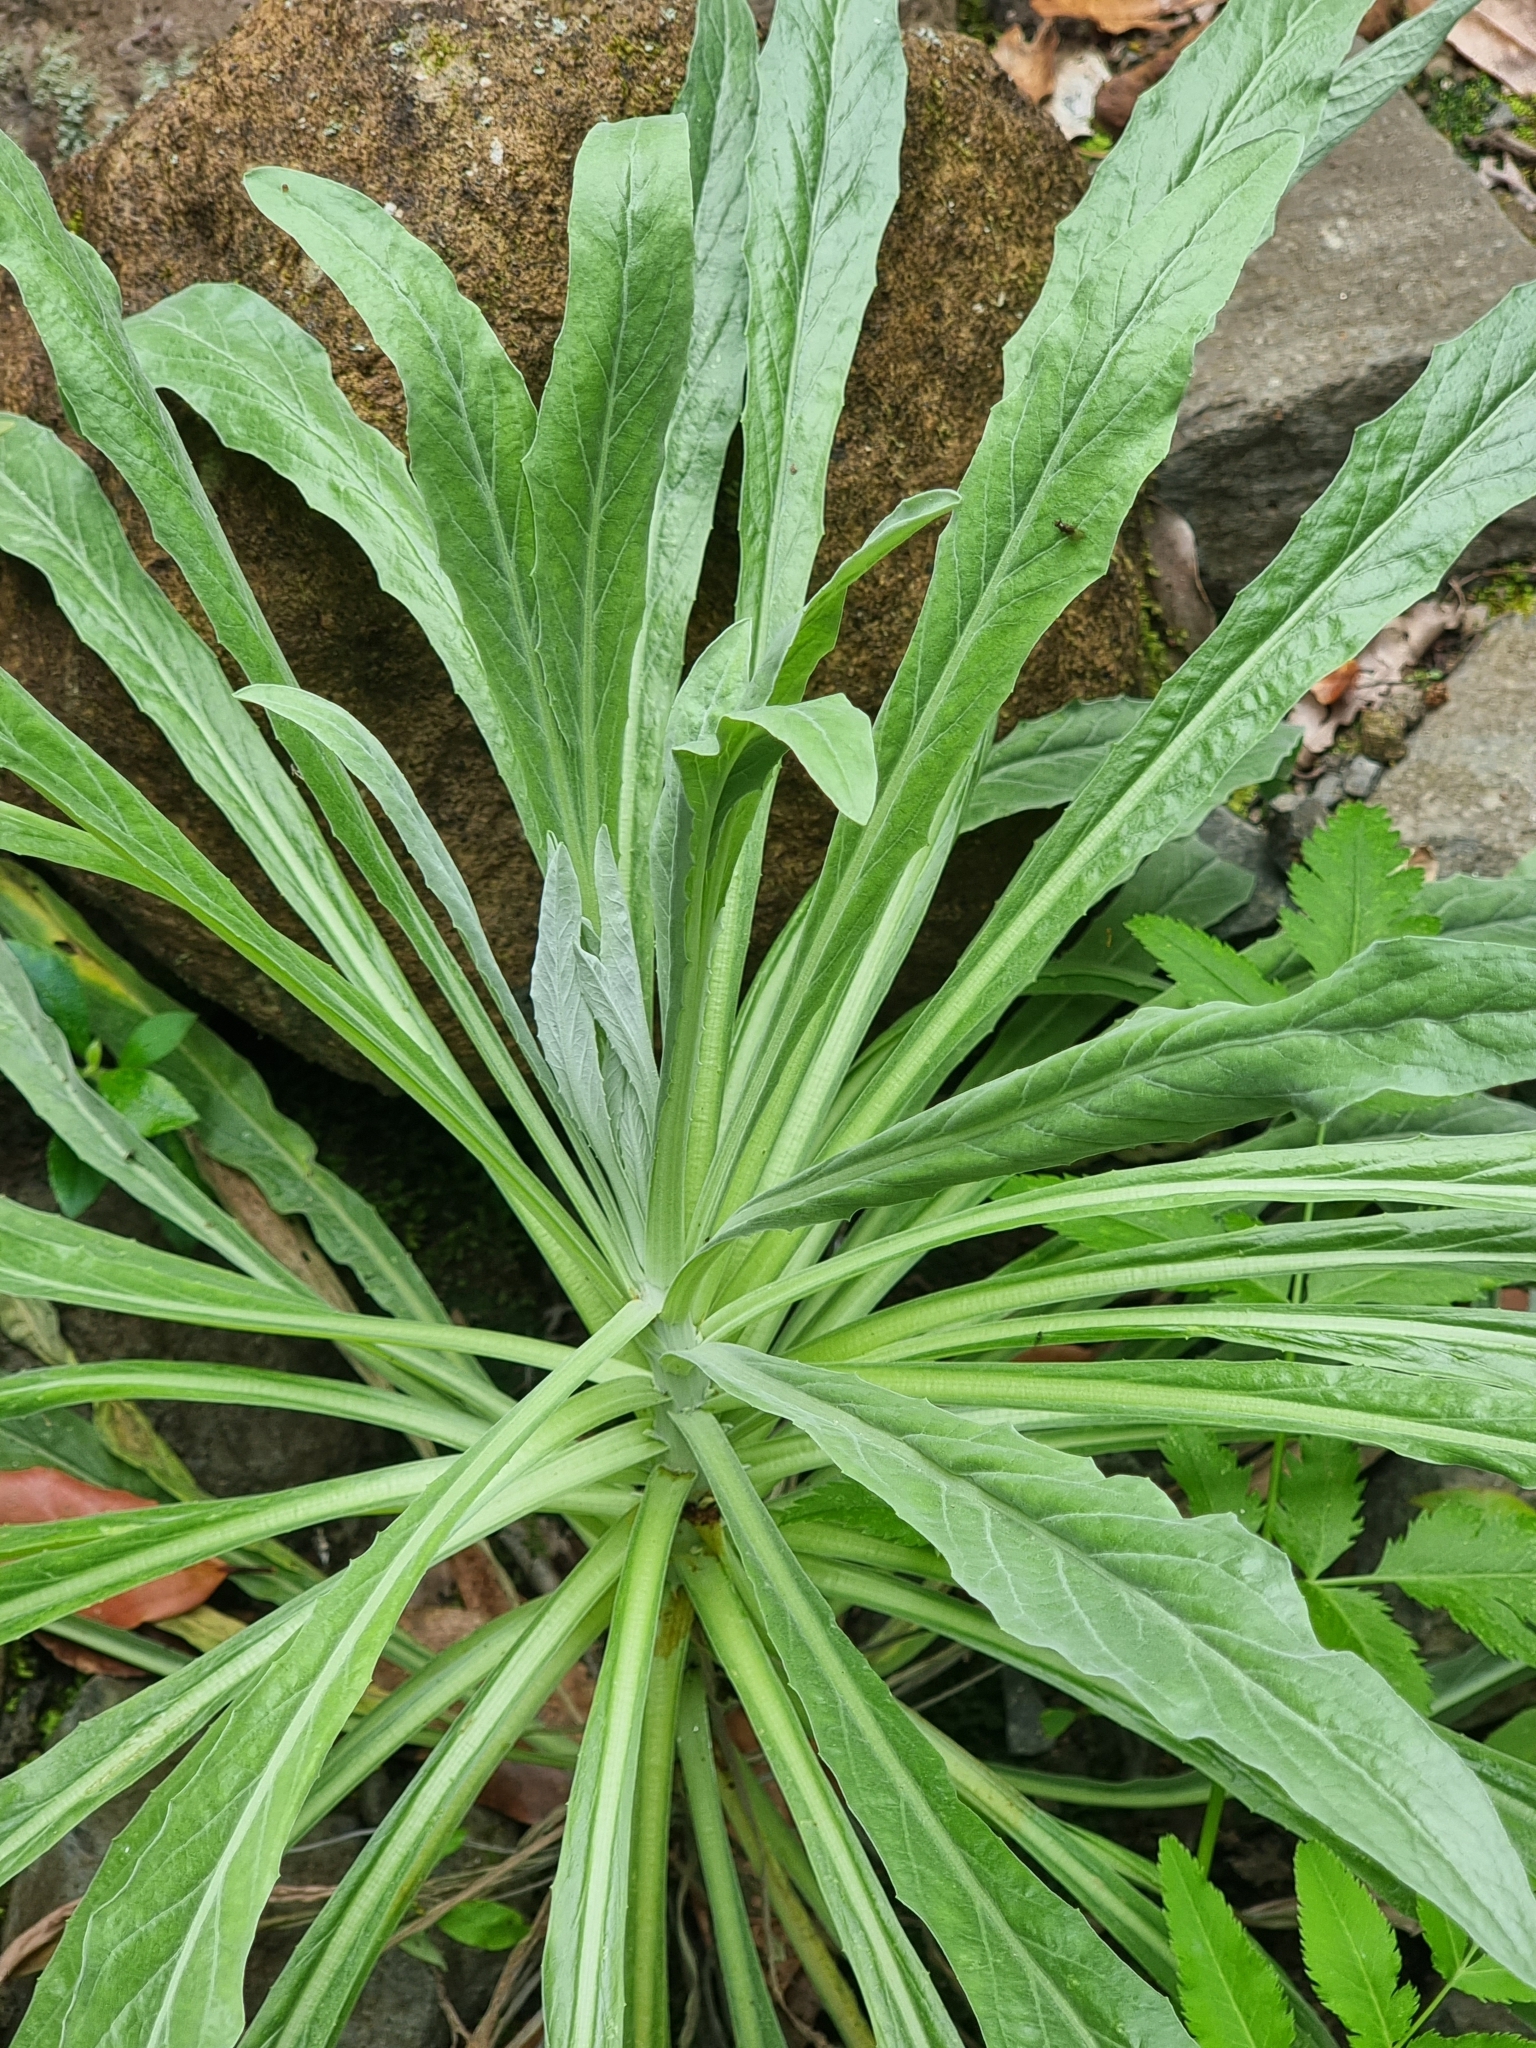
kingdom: Plantae
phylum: Tracheophyta
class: Magnoliopsida
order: Asterales
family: Asteraceae
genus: Andryala
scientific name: Andryala glandulosa
